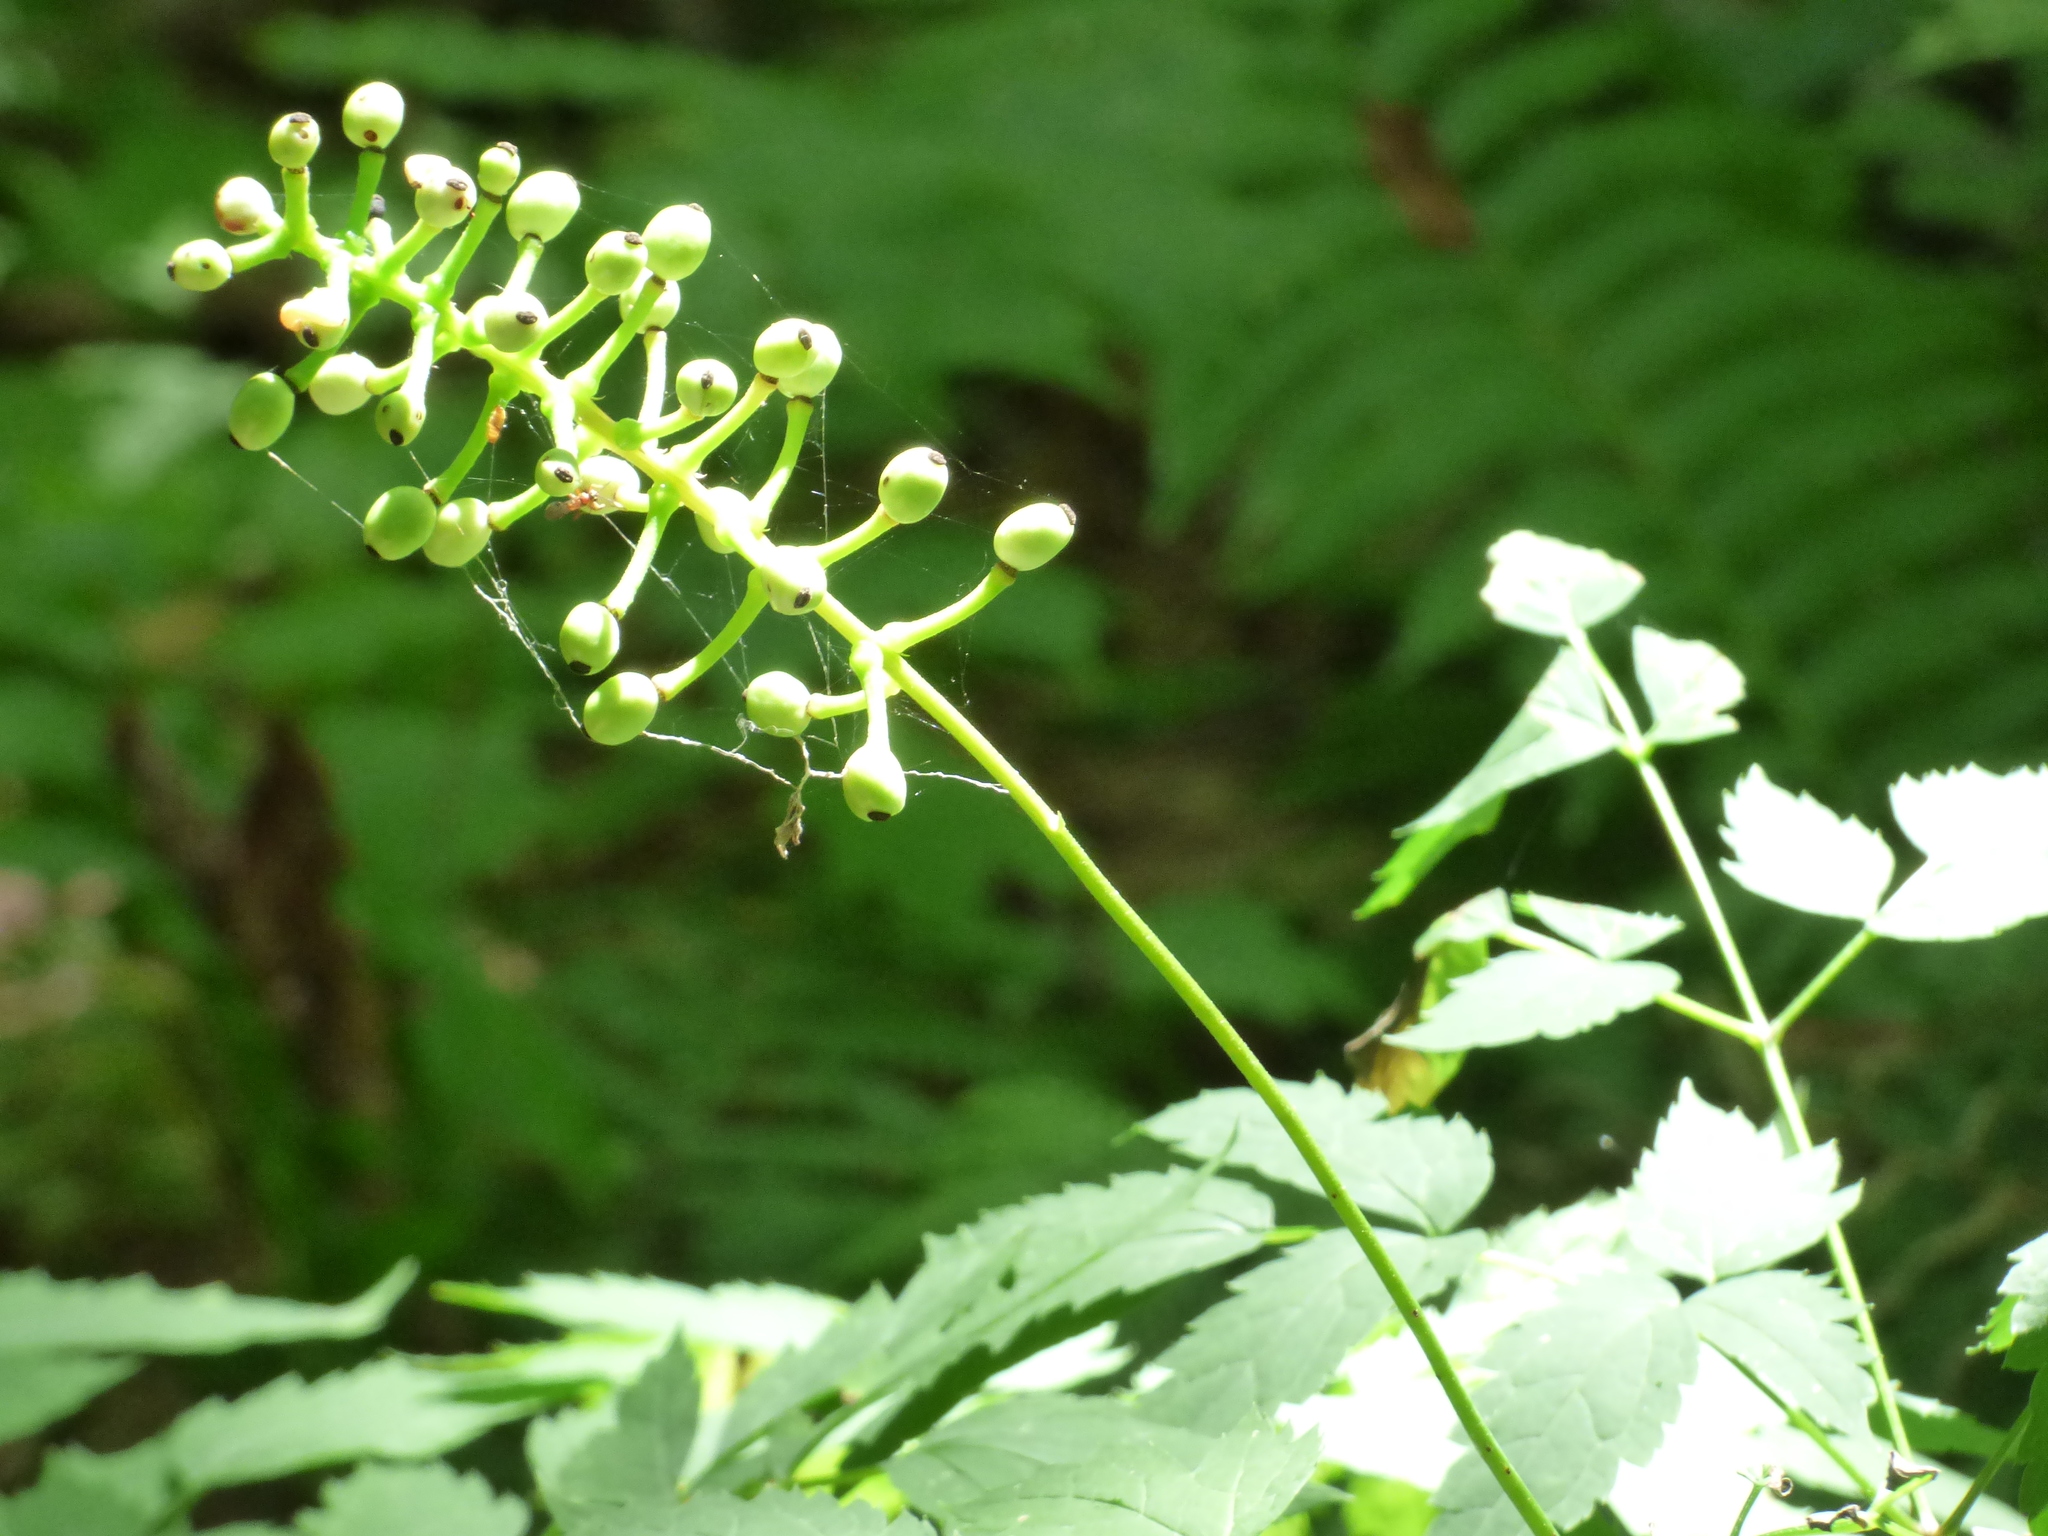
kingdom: Plantae
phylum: Tracheophyta
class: Magnoliopsida
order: Ranunculales
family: Ranunculaceae
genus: Actaea
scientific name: Actaea pachypoda
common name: Doll's-eyes
